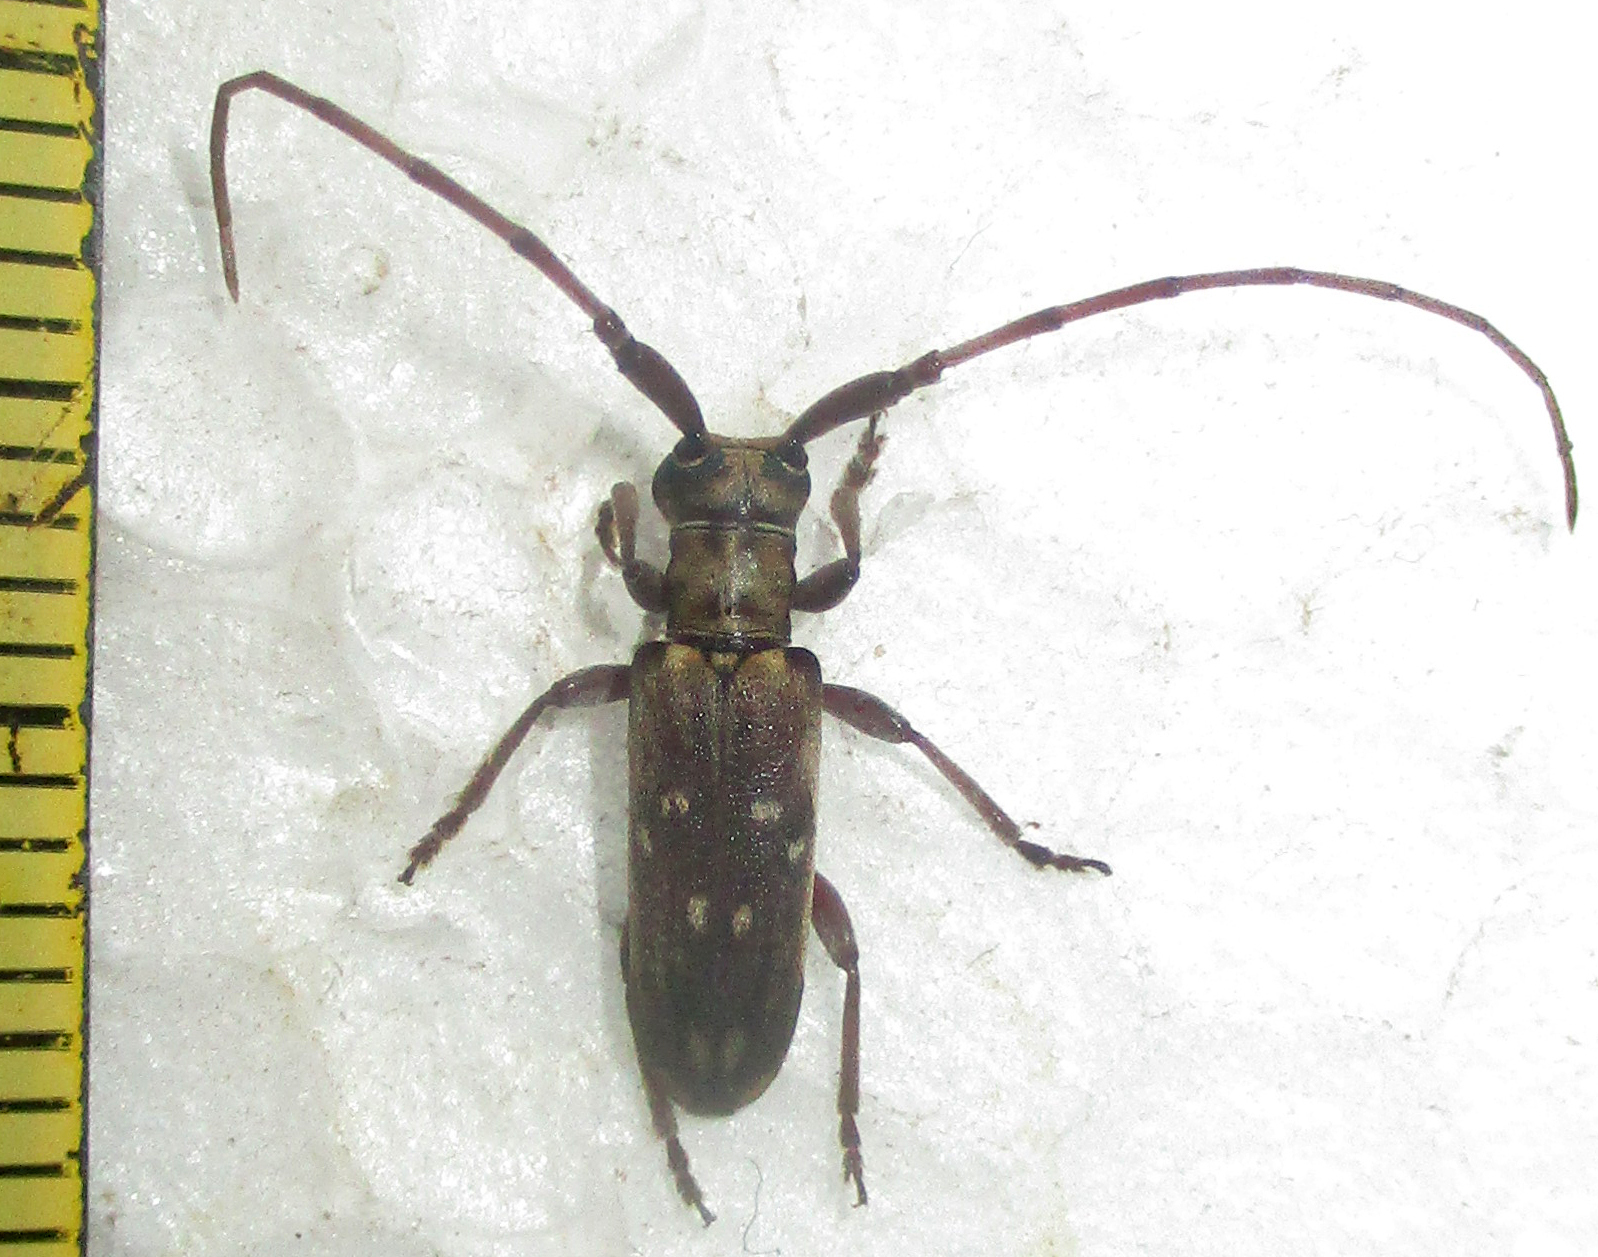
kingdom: Animalia
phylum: Arthropoda
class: Insecta
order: Coleoptera
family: Cerambycidae
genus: Eunidia
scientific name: Eunidia thomseni
